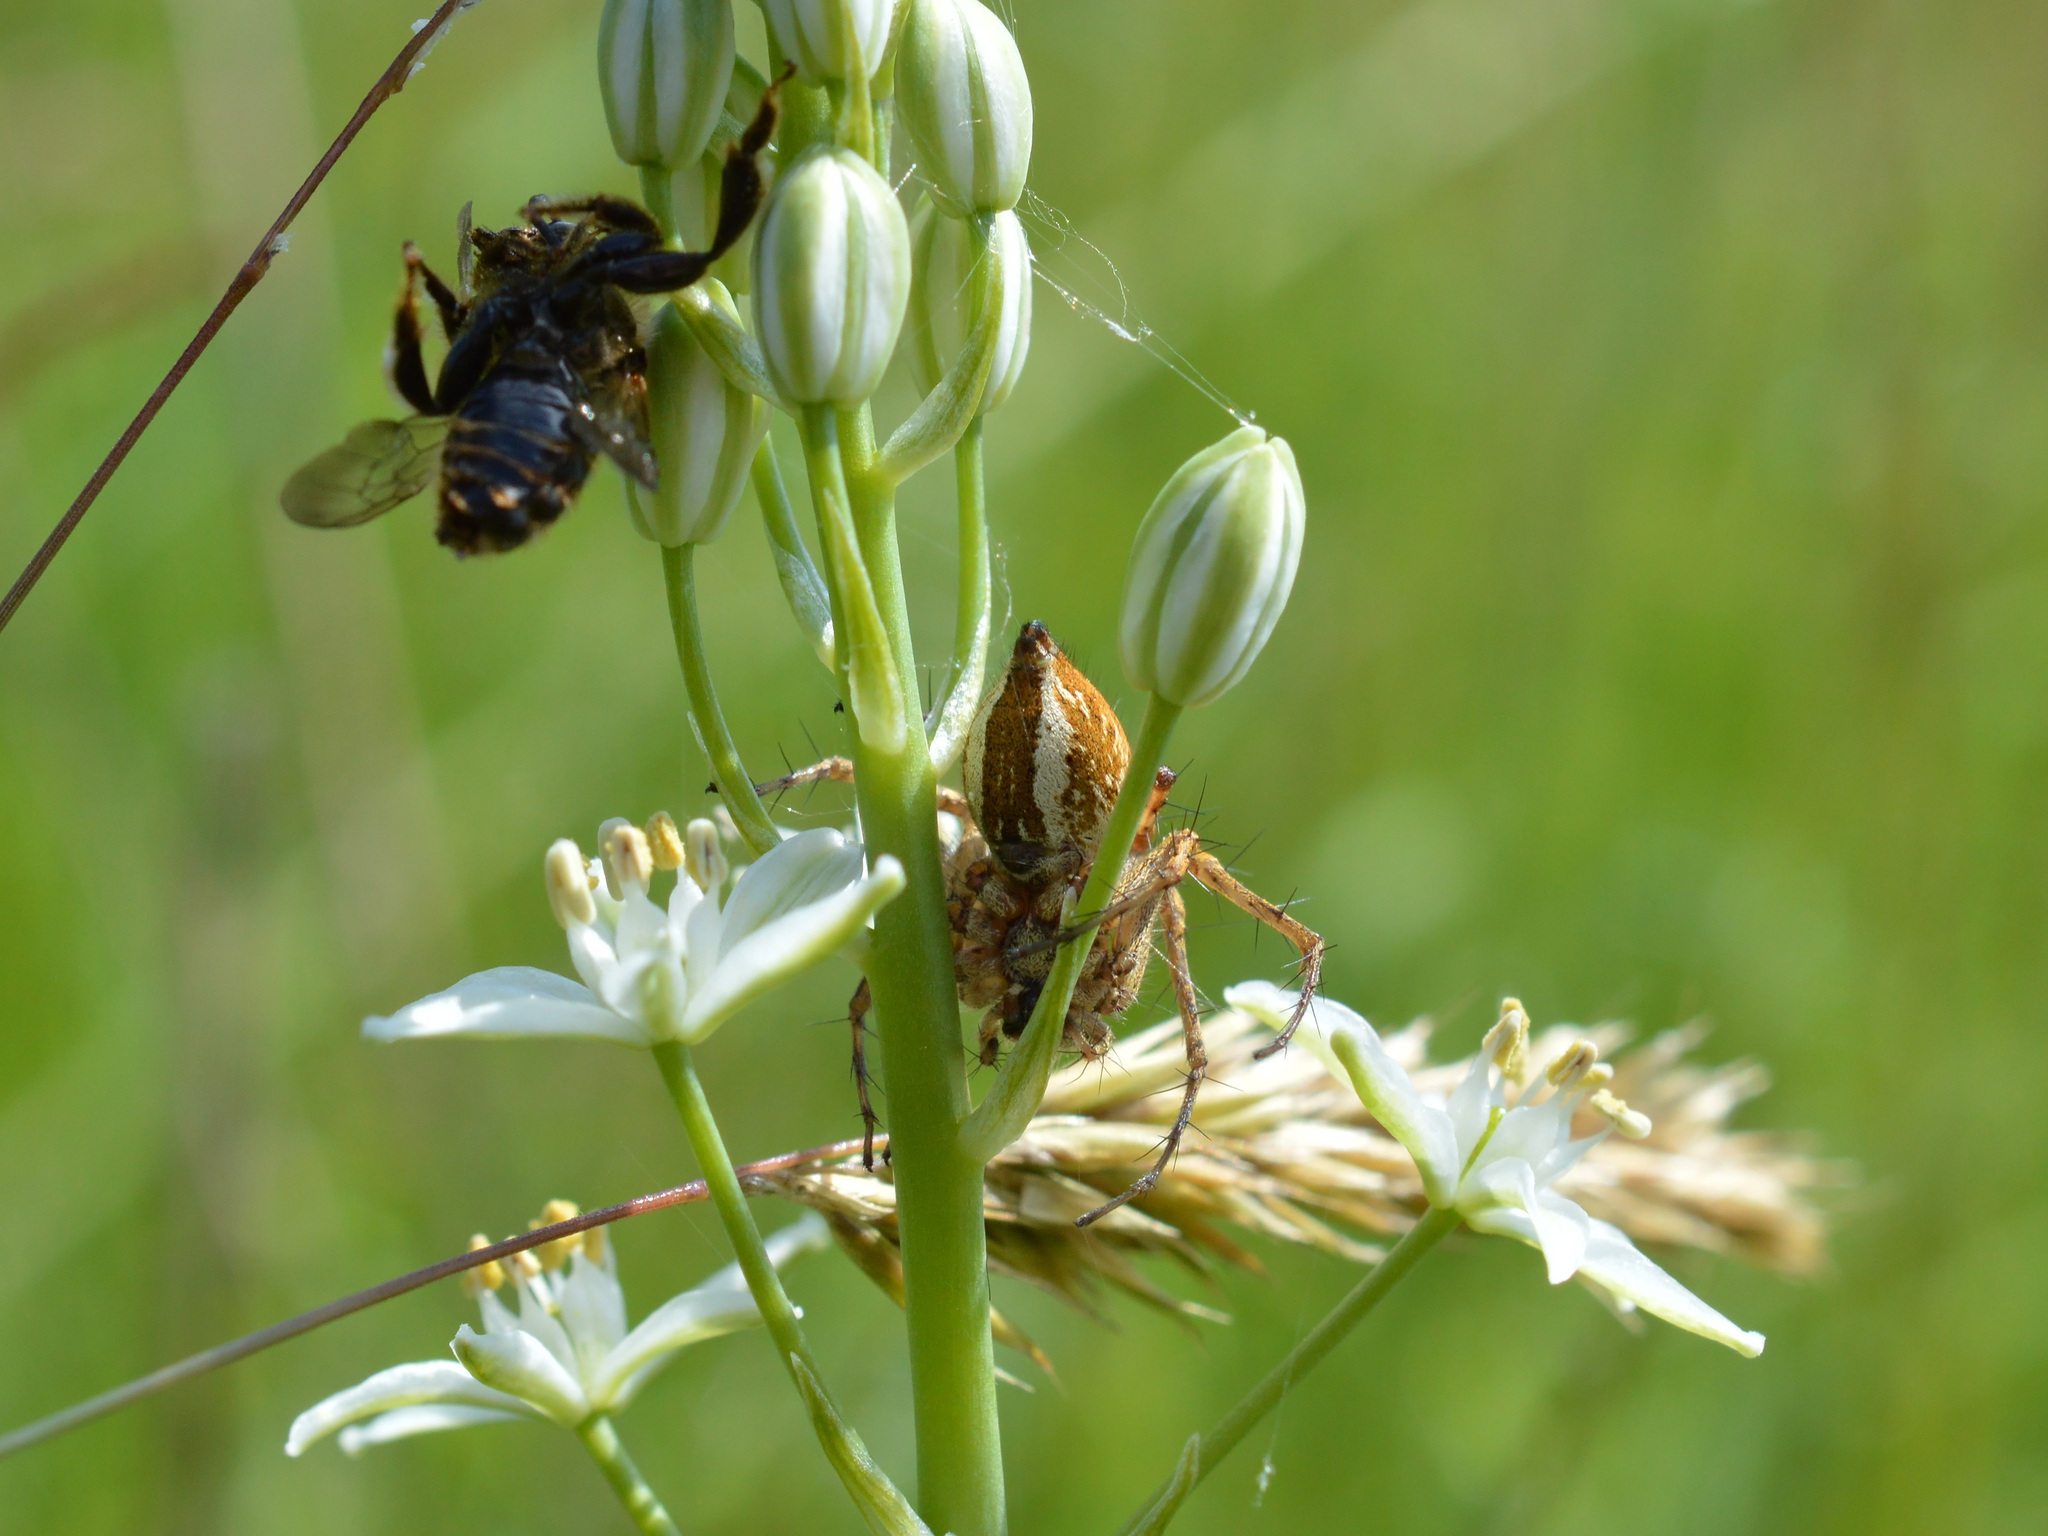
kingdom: Animalia
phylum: Arthropoda
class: Arachnida
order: Araneae
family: Oxyopidae
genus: Oxyopes
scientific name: Oxyopes heterophthalmus
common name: Lynx spider
